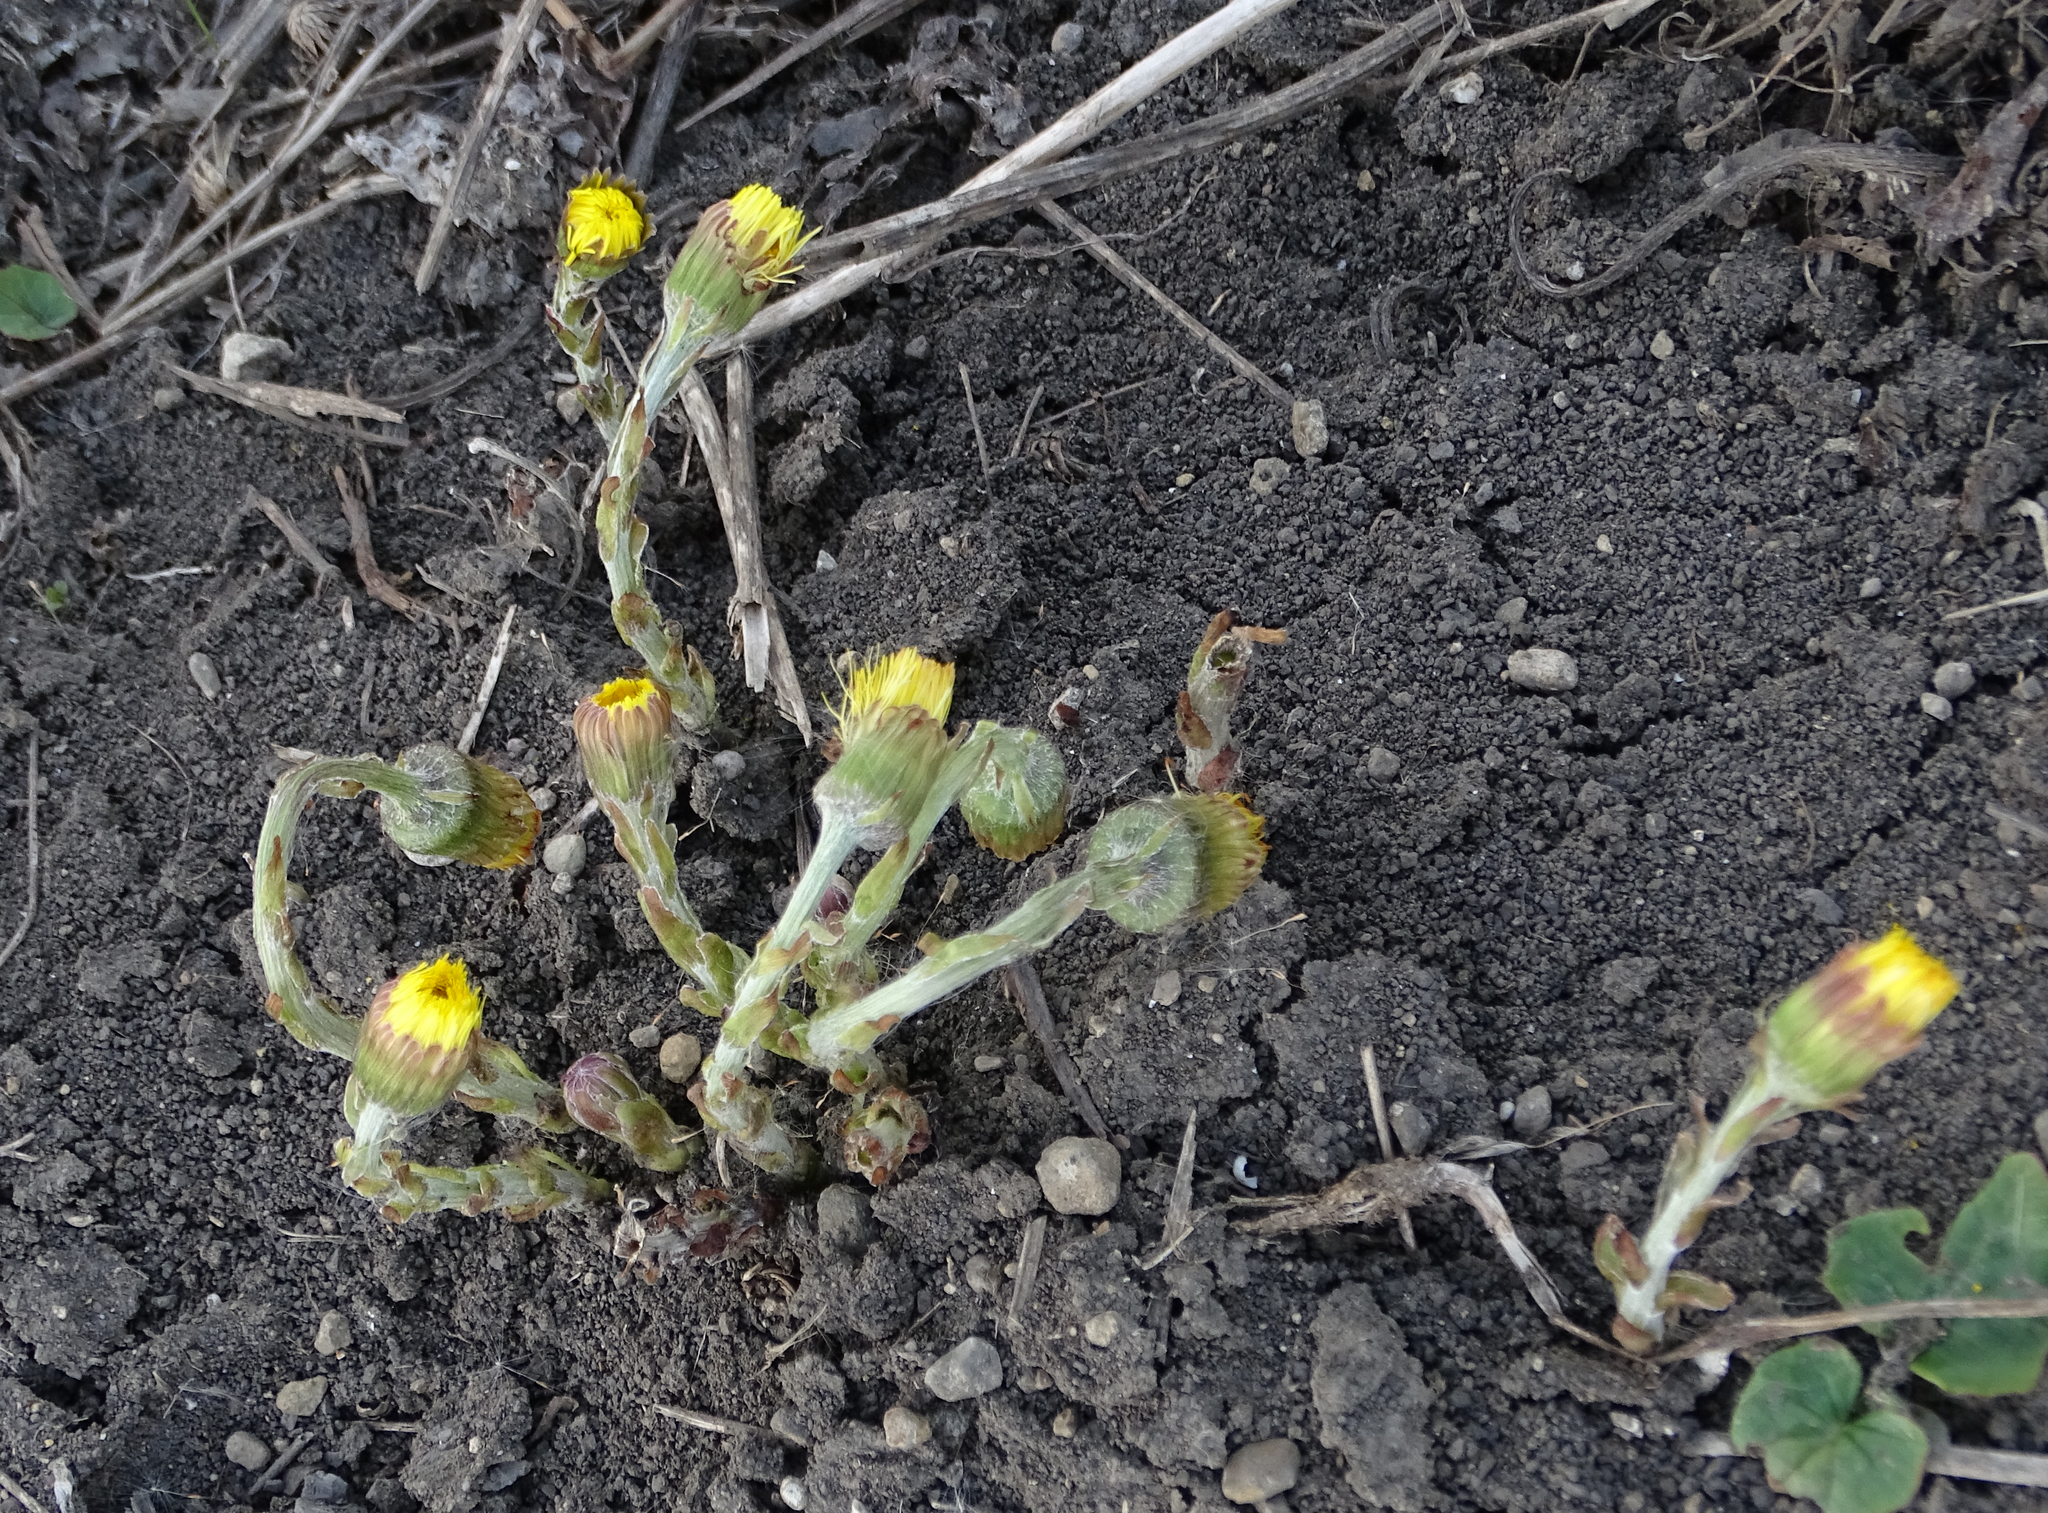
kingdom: Plantae
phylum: Tracheophyta
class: Magnoliopsida
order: Asterales
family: Asteraceae
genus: Tussilago
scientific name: Tussilago farfara
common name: Coltsfoot
